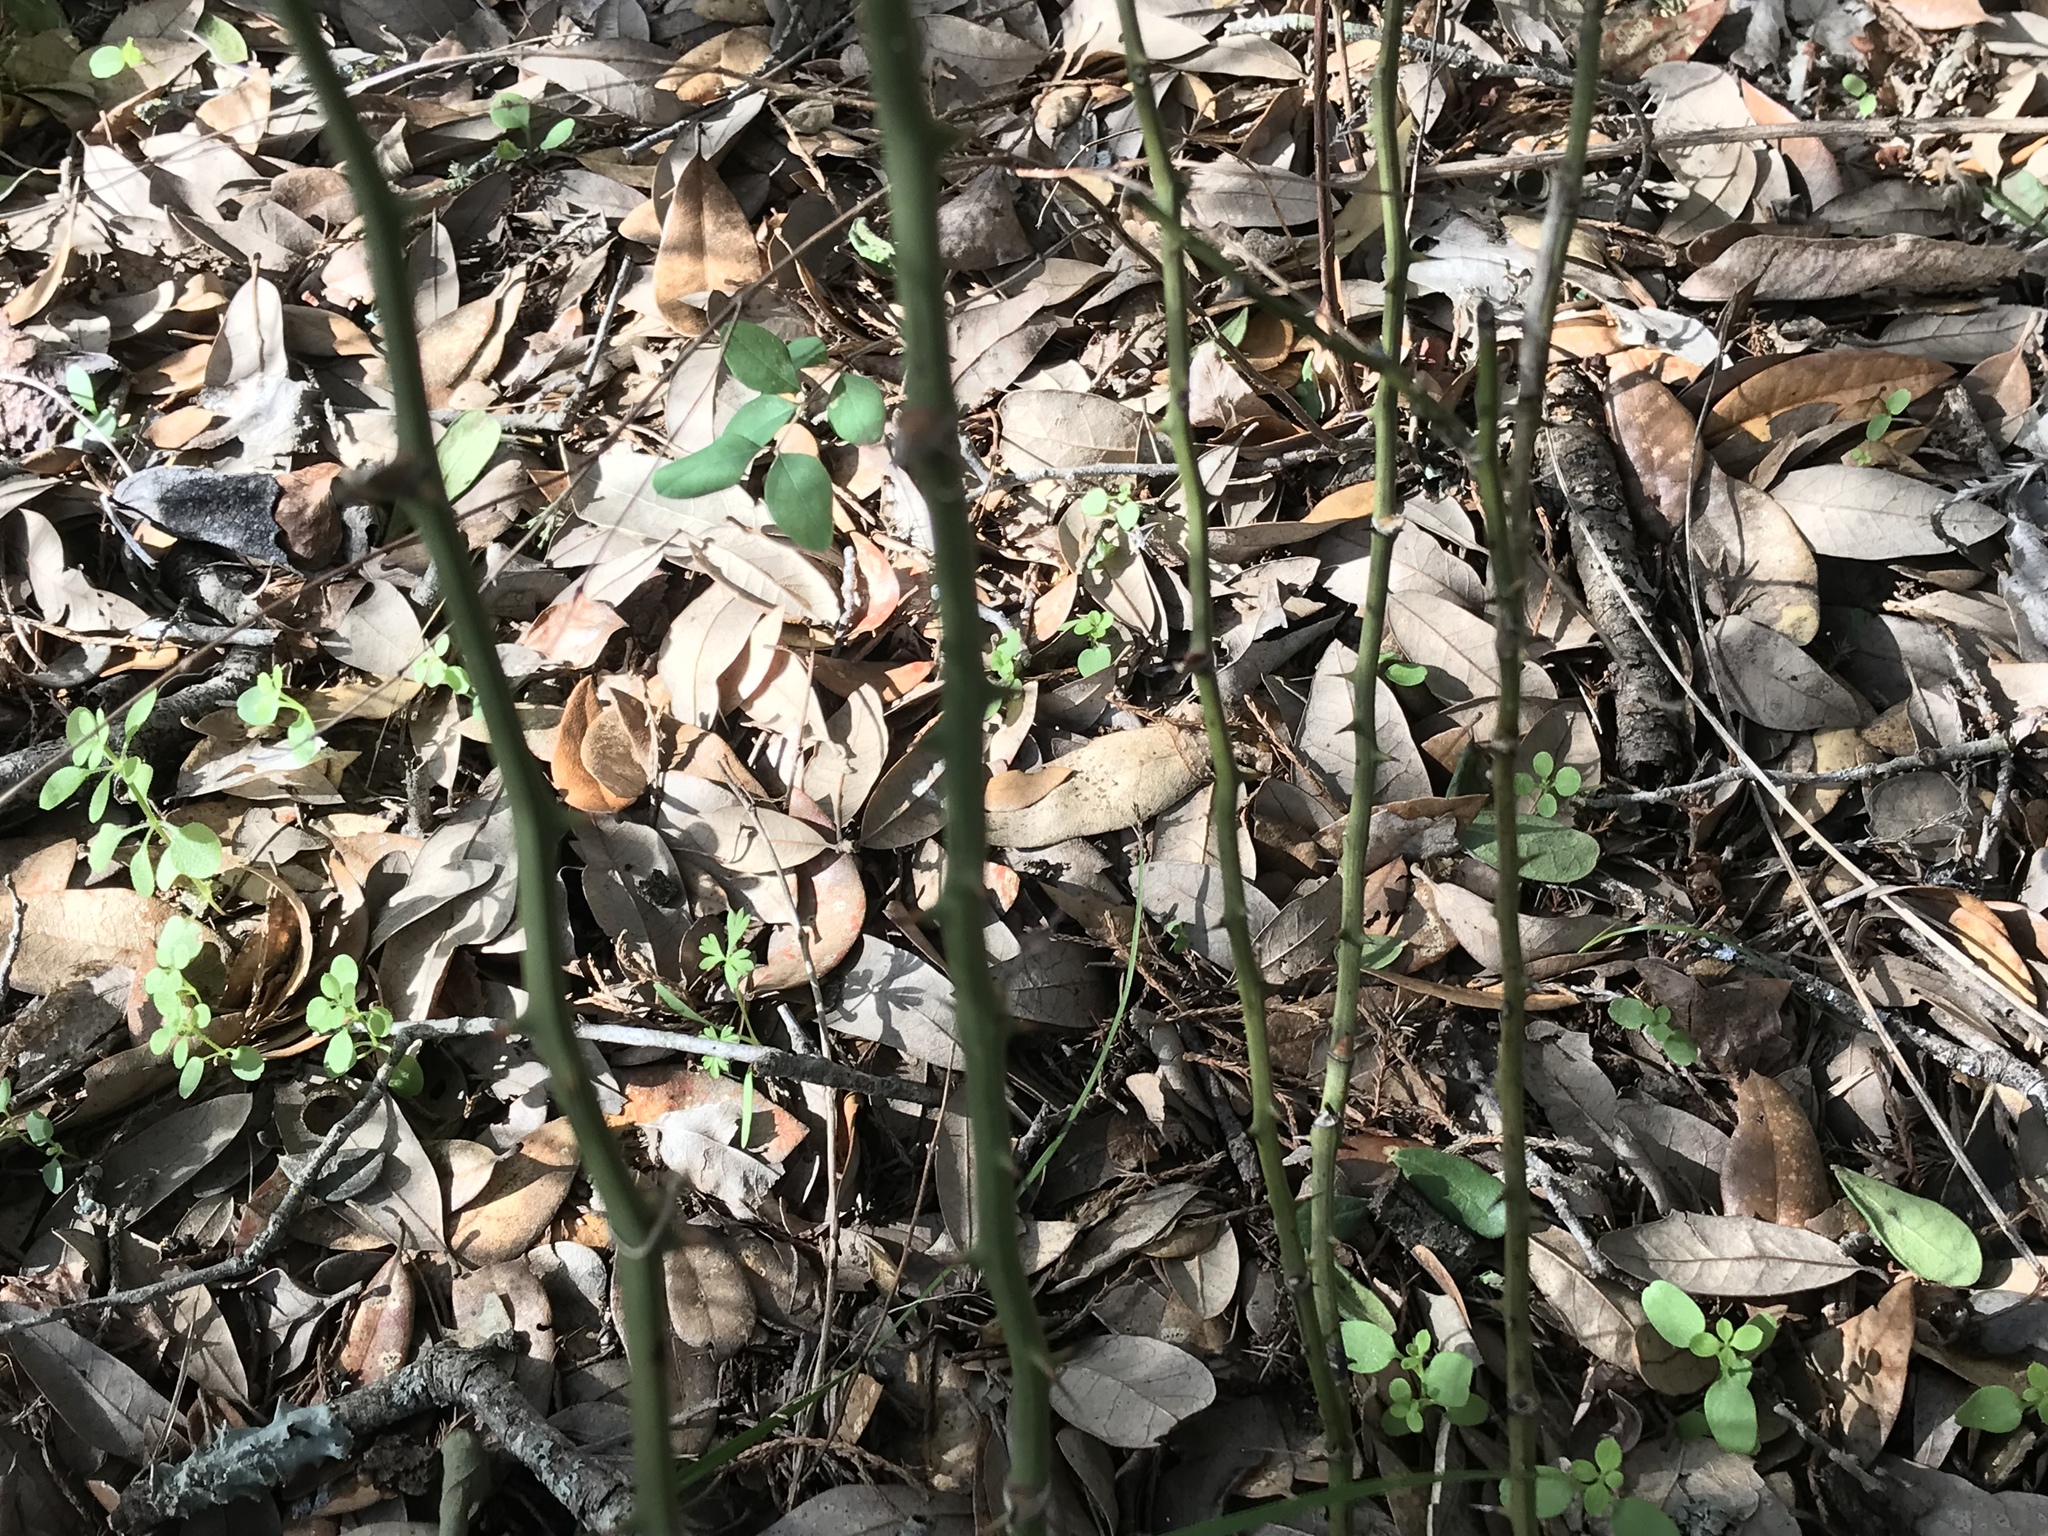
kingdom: Plantae
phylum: Tracheophyta
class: Liliopsida
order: Liliales
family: Smilacaceae
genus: Smilax
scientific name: Smilax bona-nox
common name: Catbrier
